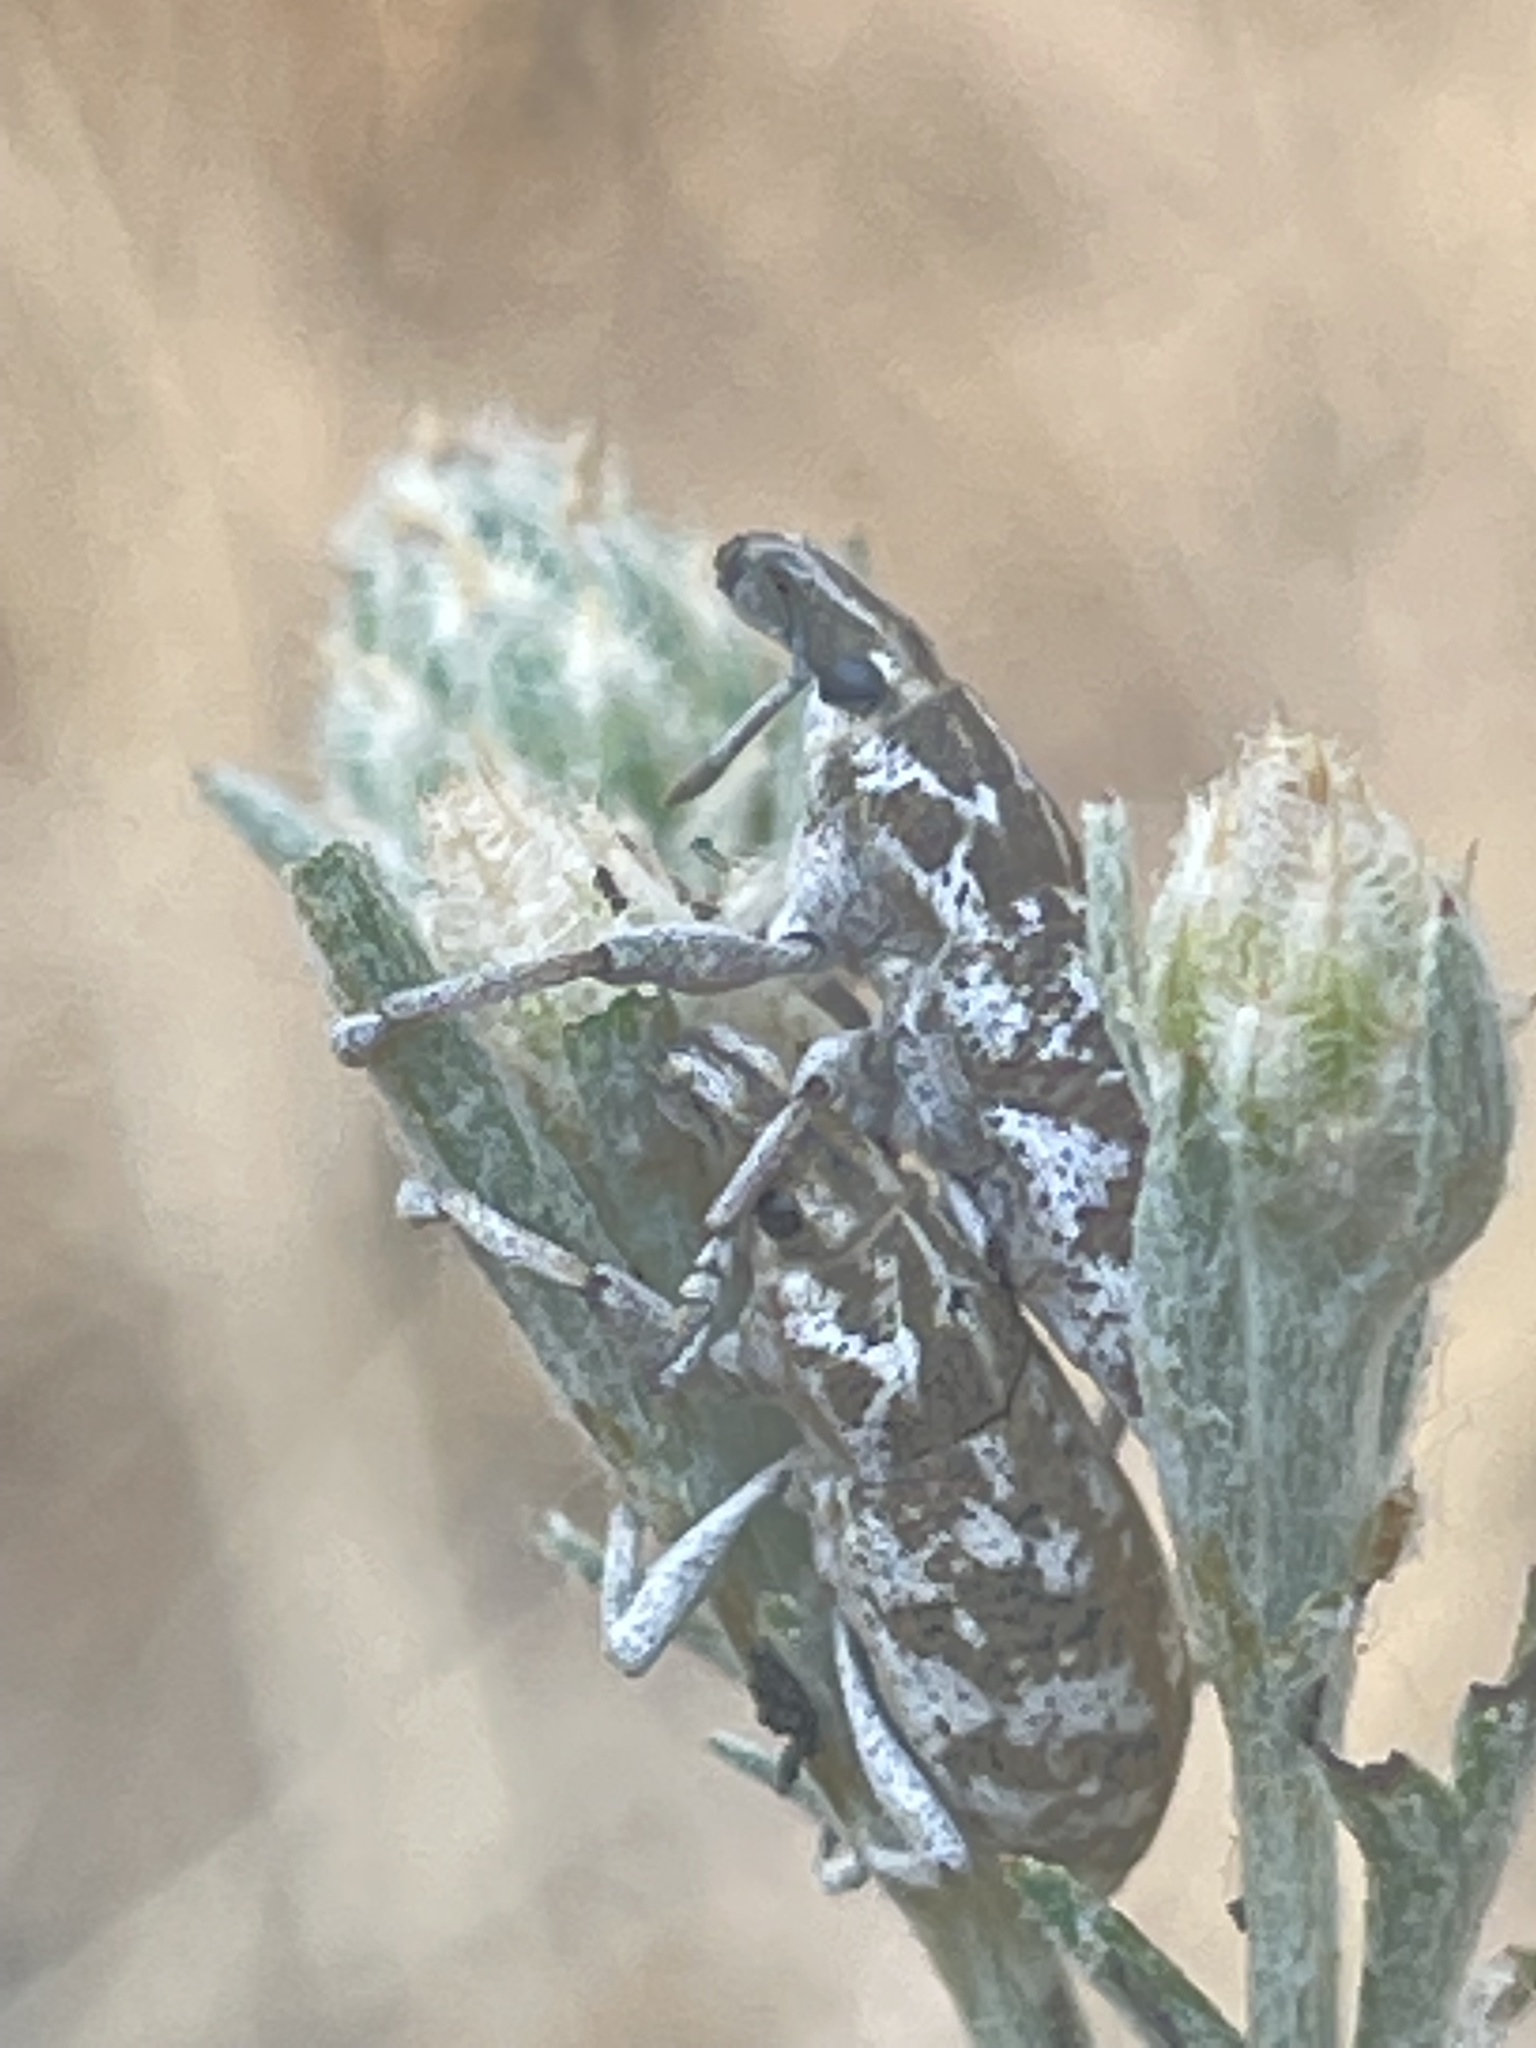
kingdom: Animalia
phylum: Arthropoda
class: Insecta
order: Coleoptera
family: Curculionidae
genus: Cleonus
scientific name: Cleonus achates
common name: Root weevil
